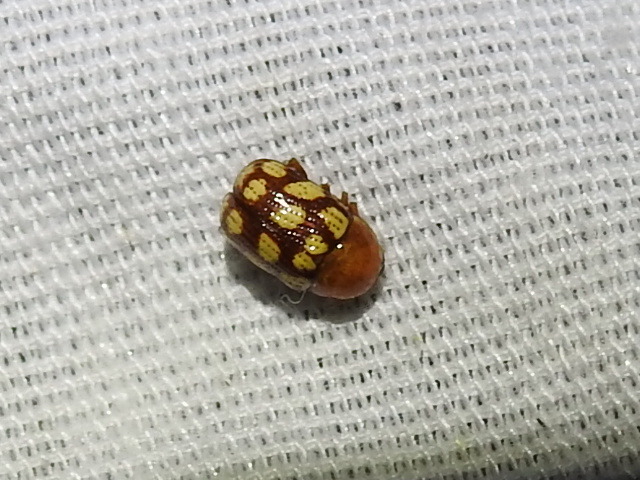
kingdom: Animalia
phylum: Arthropoda
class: Insecta
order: Coleoptera
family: Chrysomelidae
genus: Cryptocephalus
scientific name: Cryptocephalus guttulatus
